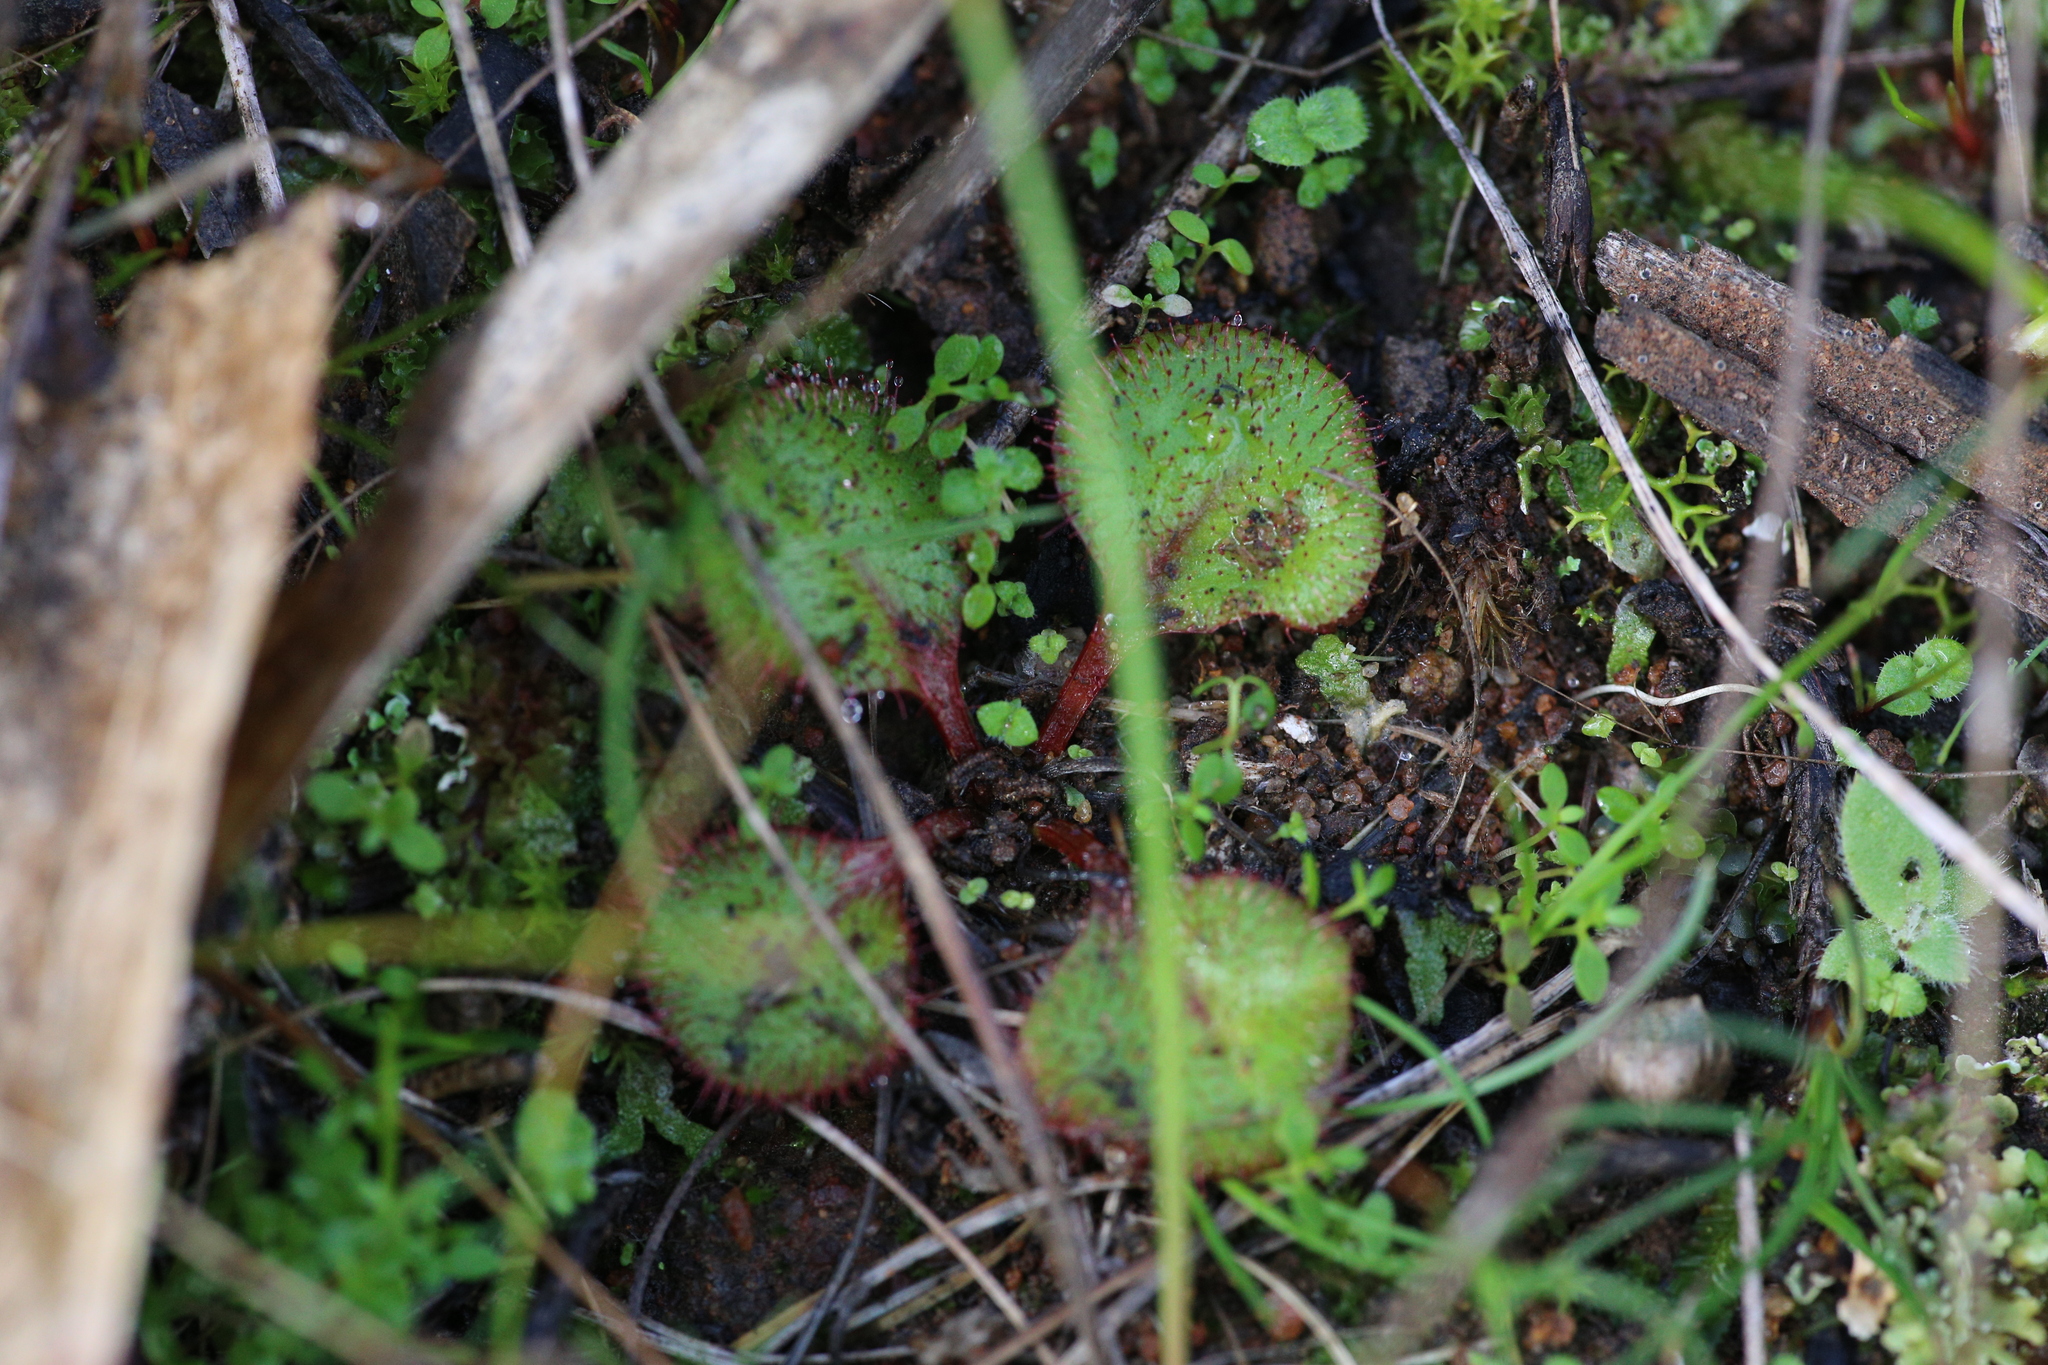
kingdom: Plantae
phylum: Tracheophyta
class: Magnoliopsida
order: Caryophyllales
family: Droseraceae
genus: Drosera
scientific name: Drosera orbiculata
